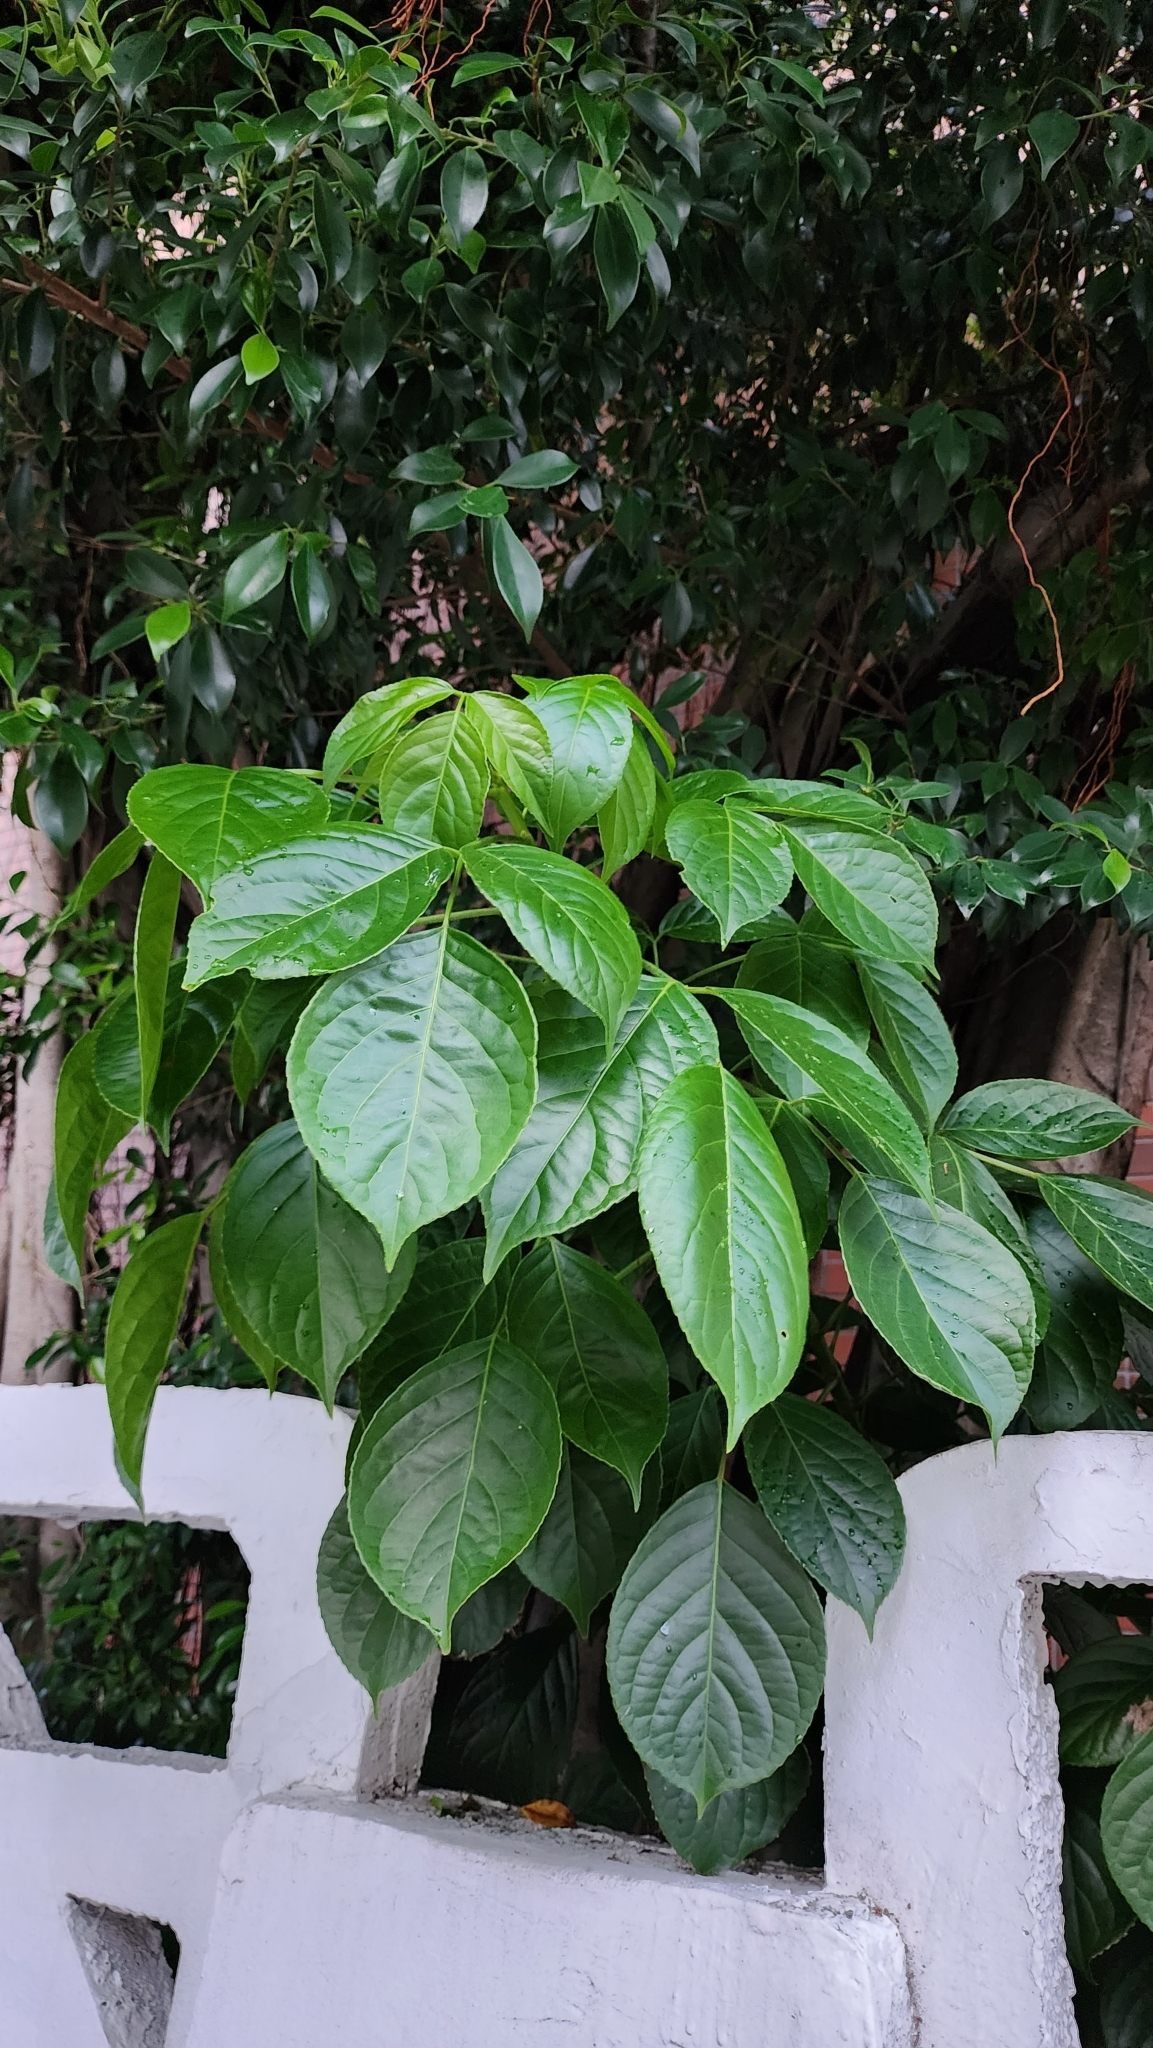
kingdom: Plantae
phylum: Tracheophyta
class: Magnoliopsida
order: Malpighiales
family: Phyllanthaceae
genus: Bischofia
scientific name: Bischofia javanica
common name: Javanese bishopwood
